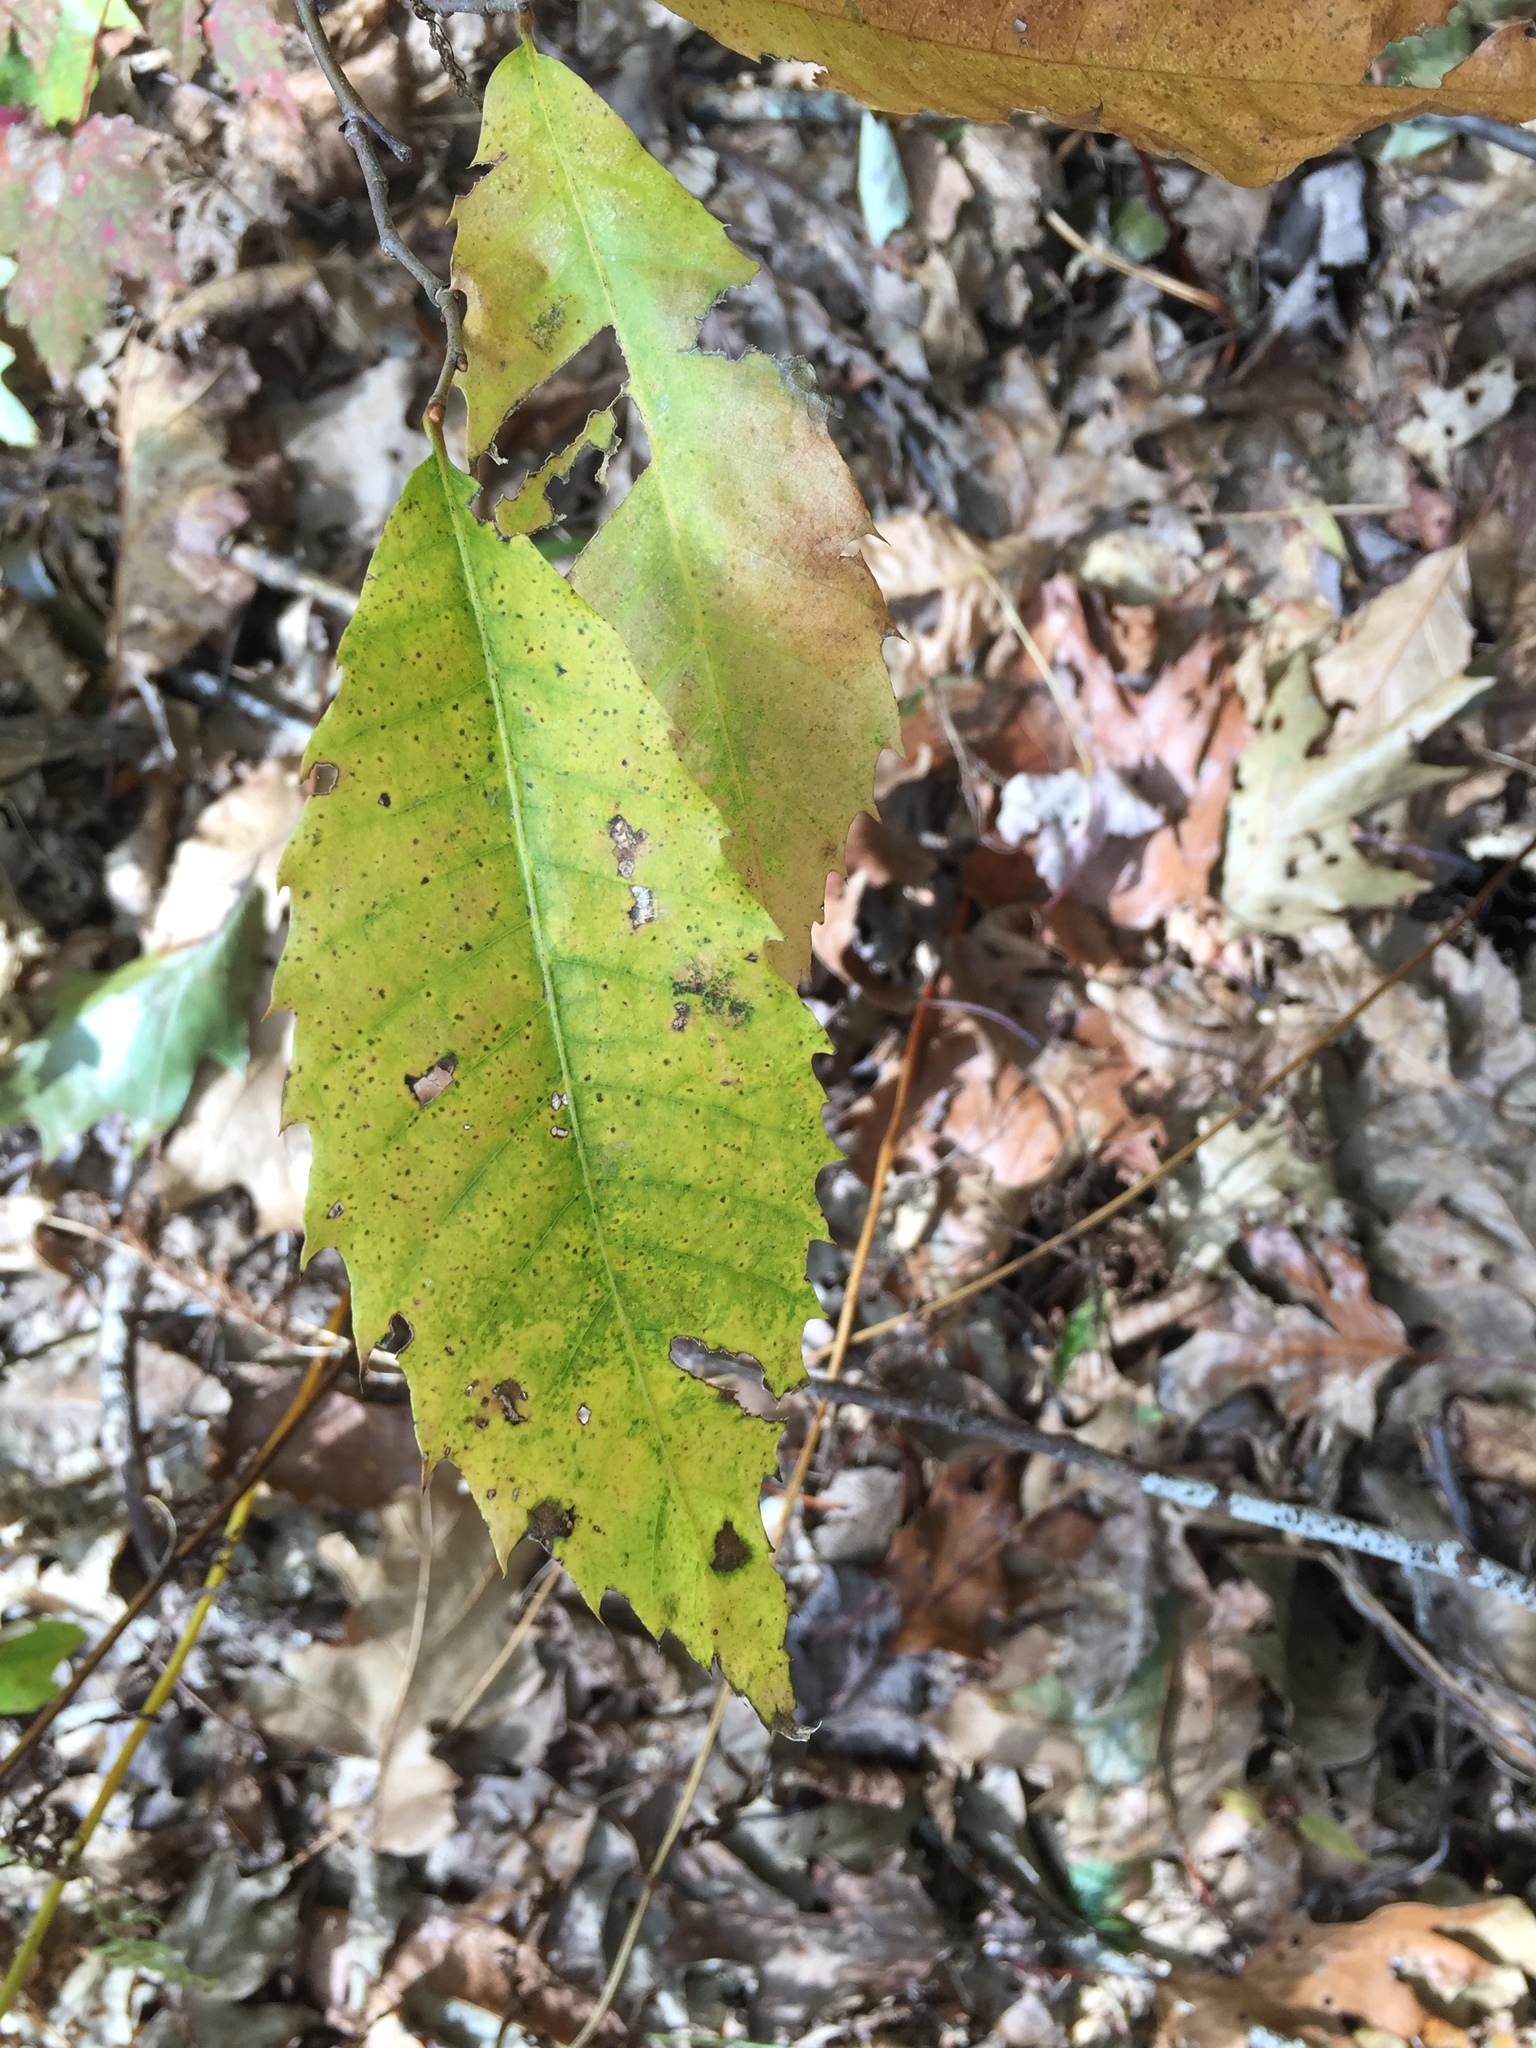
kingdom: Plantae
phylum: Tracheophyta
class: Magnoliopsida
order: Fagales
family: Fagaceae
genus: Castanea
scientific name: Castanea dentata
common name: American chestnut
